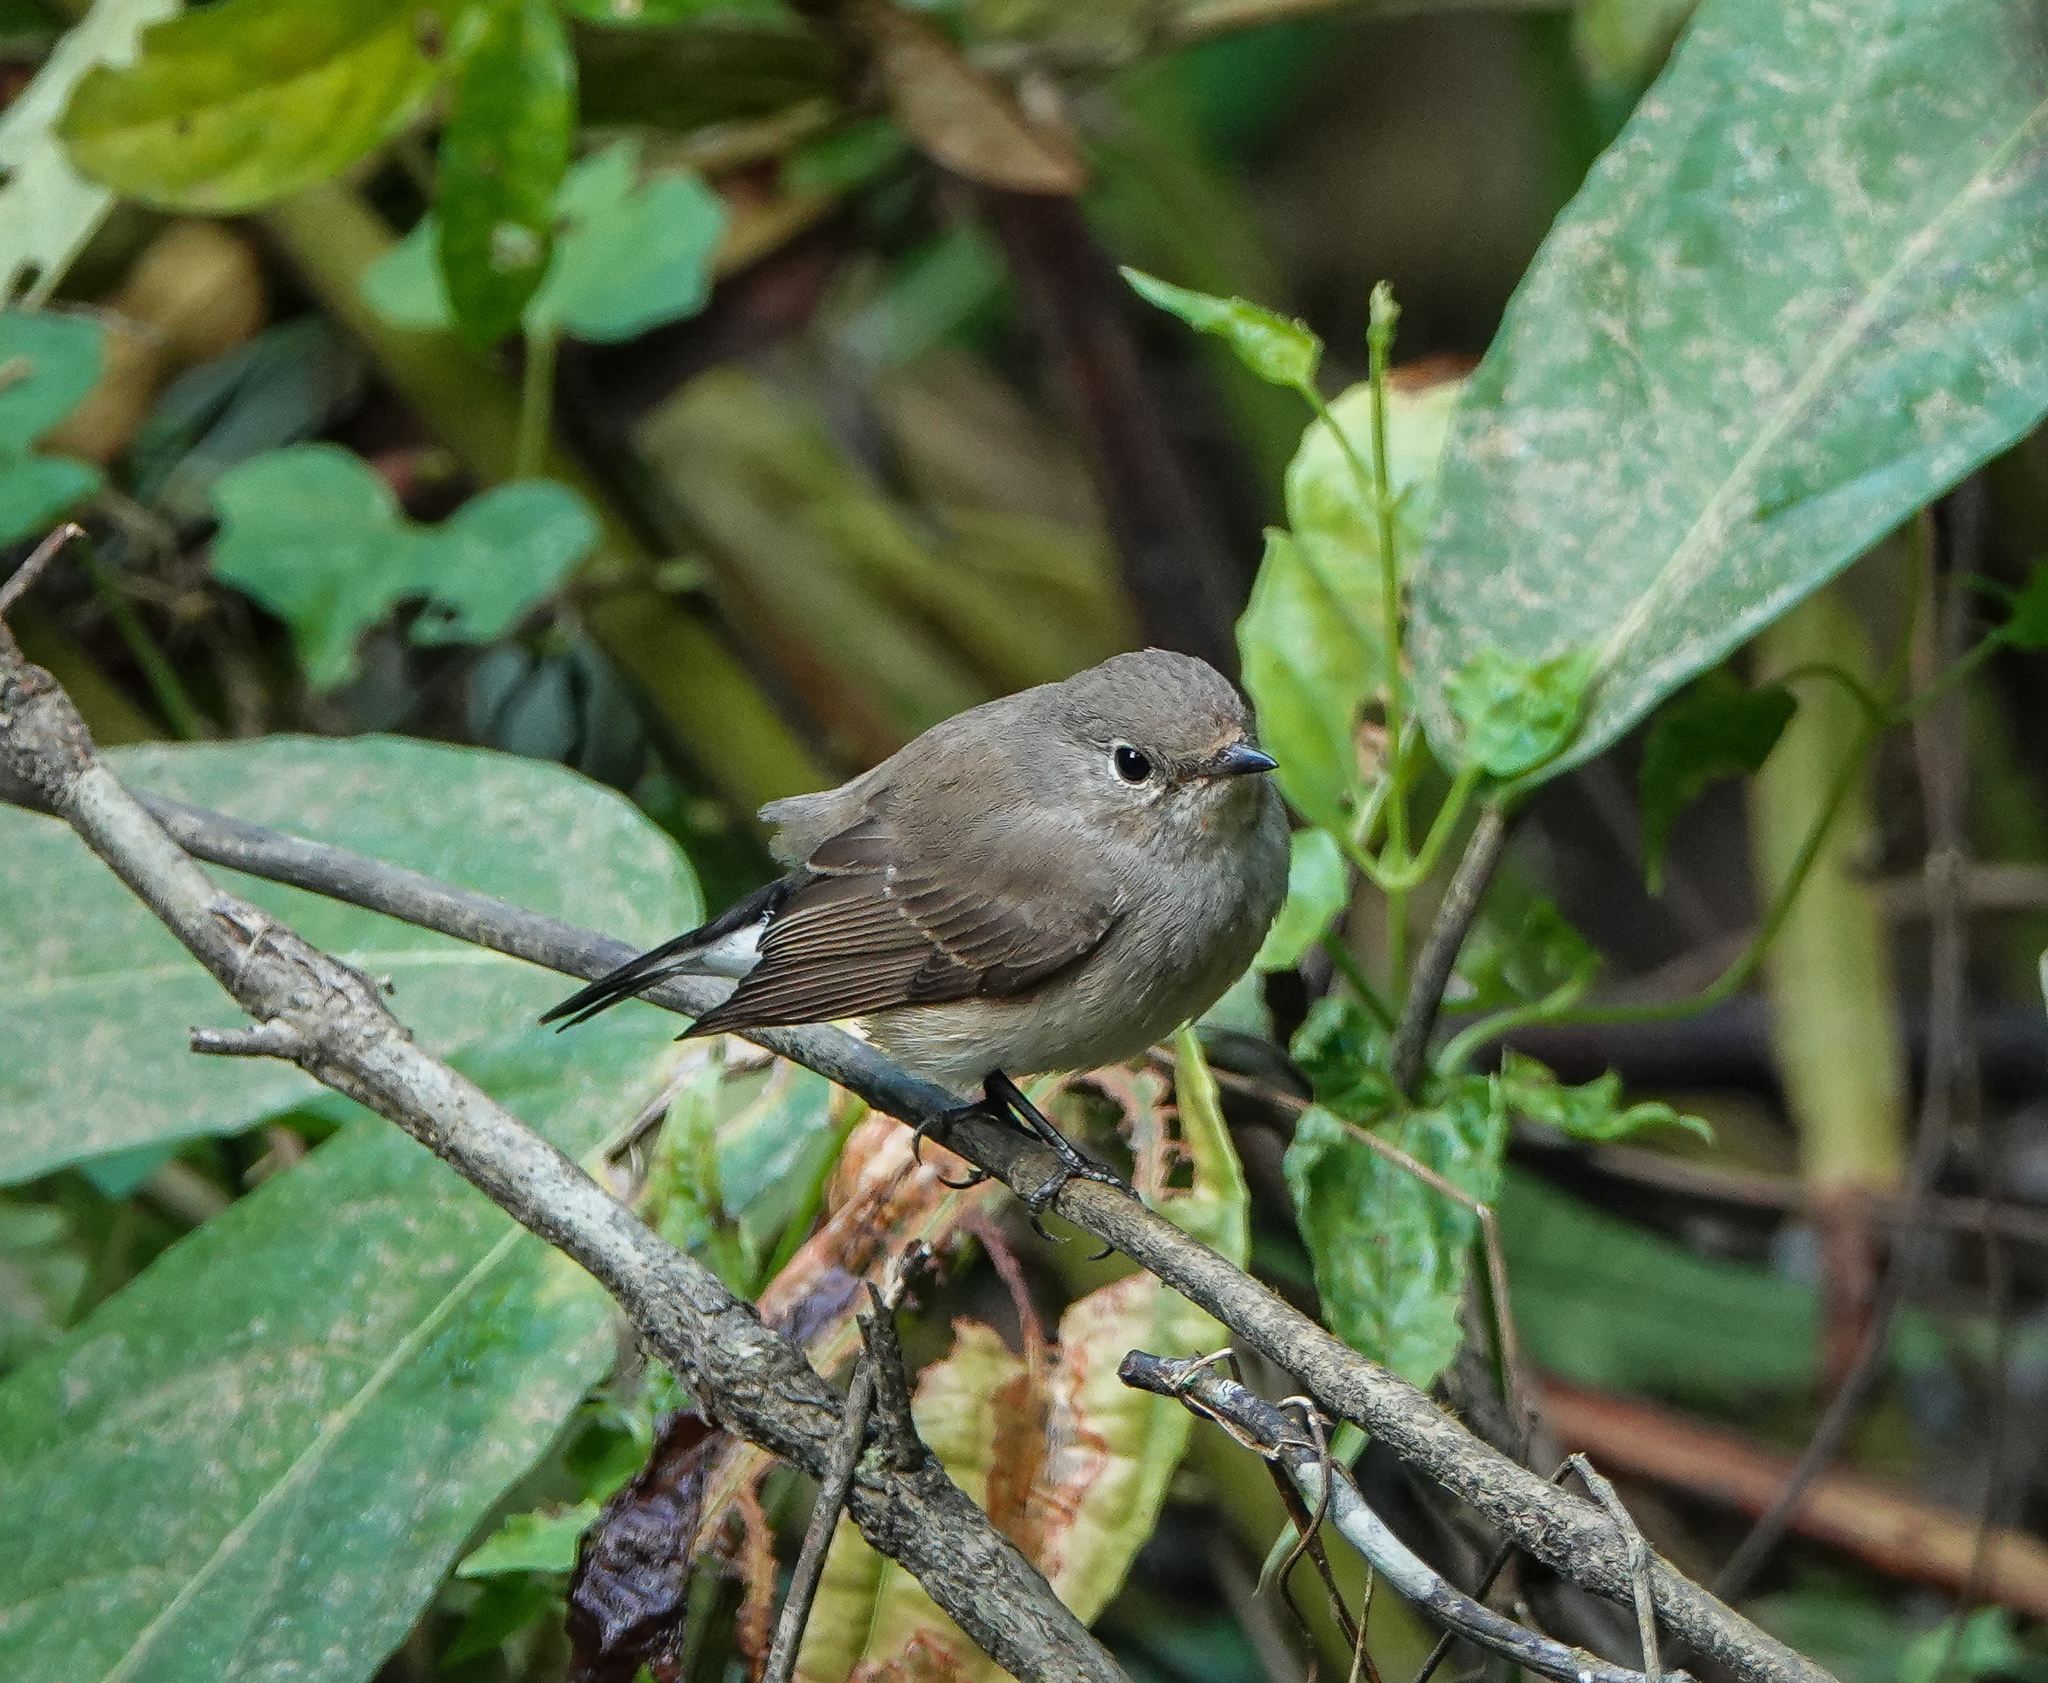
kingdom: Animalia
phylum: Chordata
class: Aves
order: Passeriformes
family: Muscicapidae
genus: Ficedula
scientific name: Ficedula westermanni
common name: Little pied flycatcher
